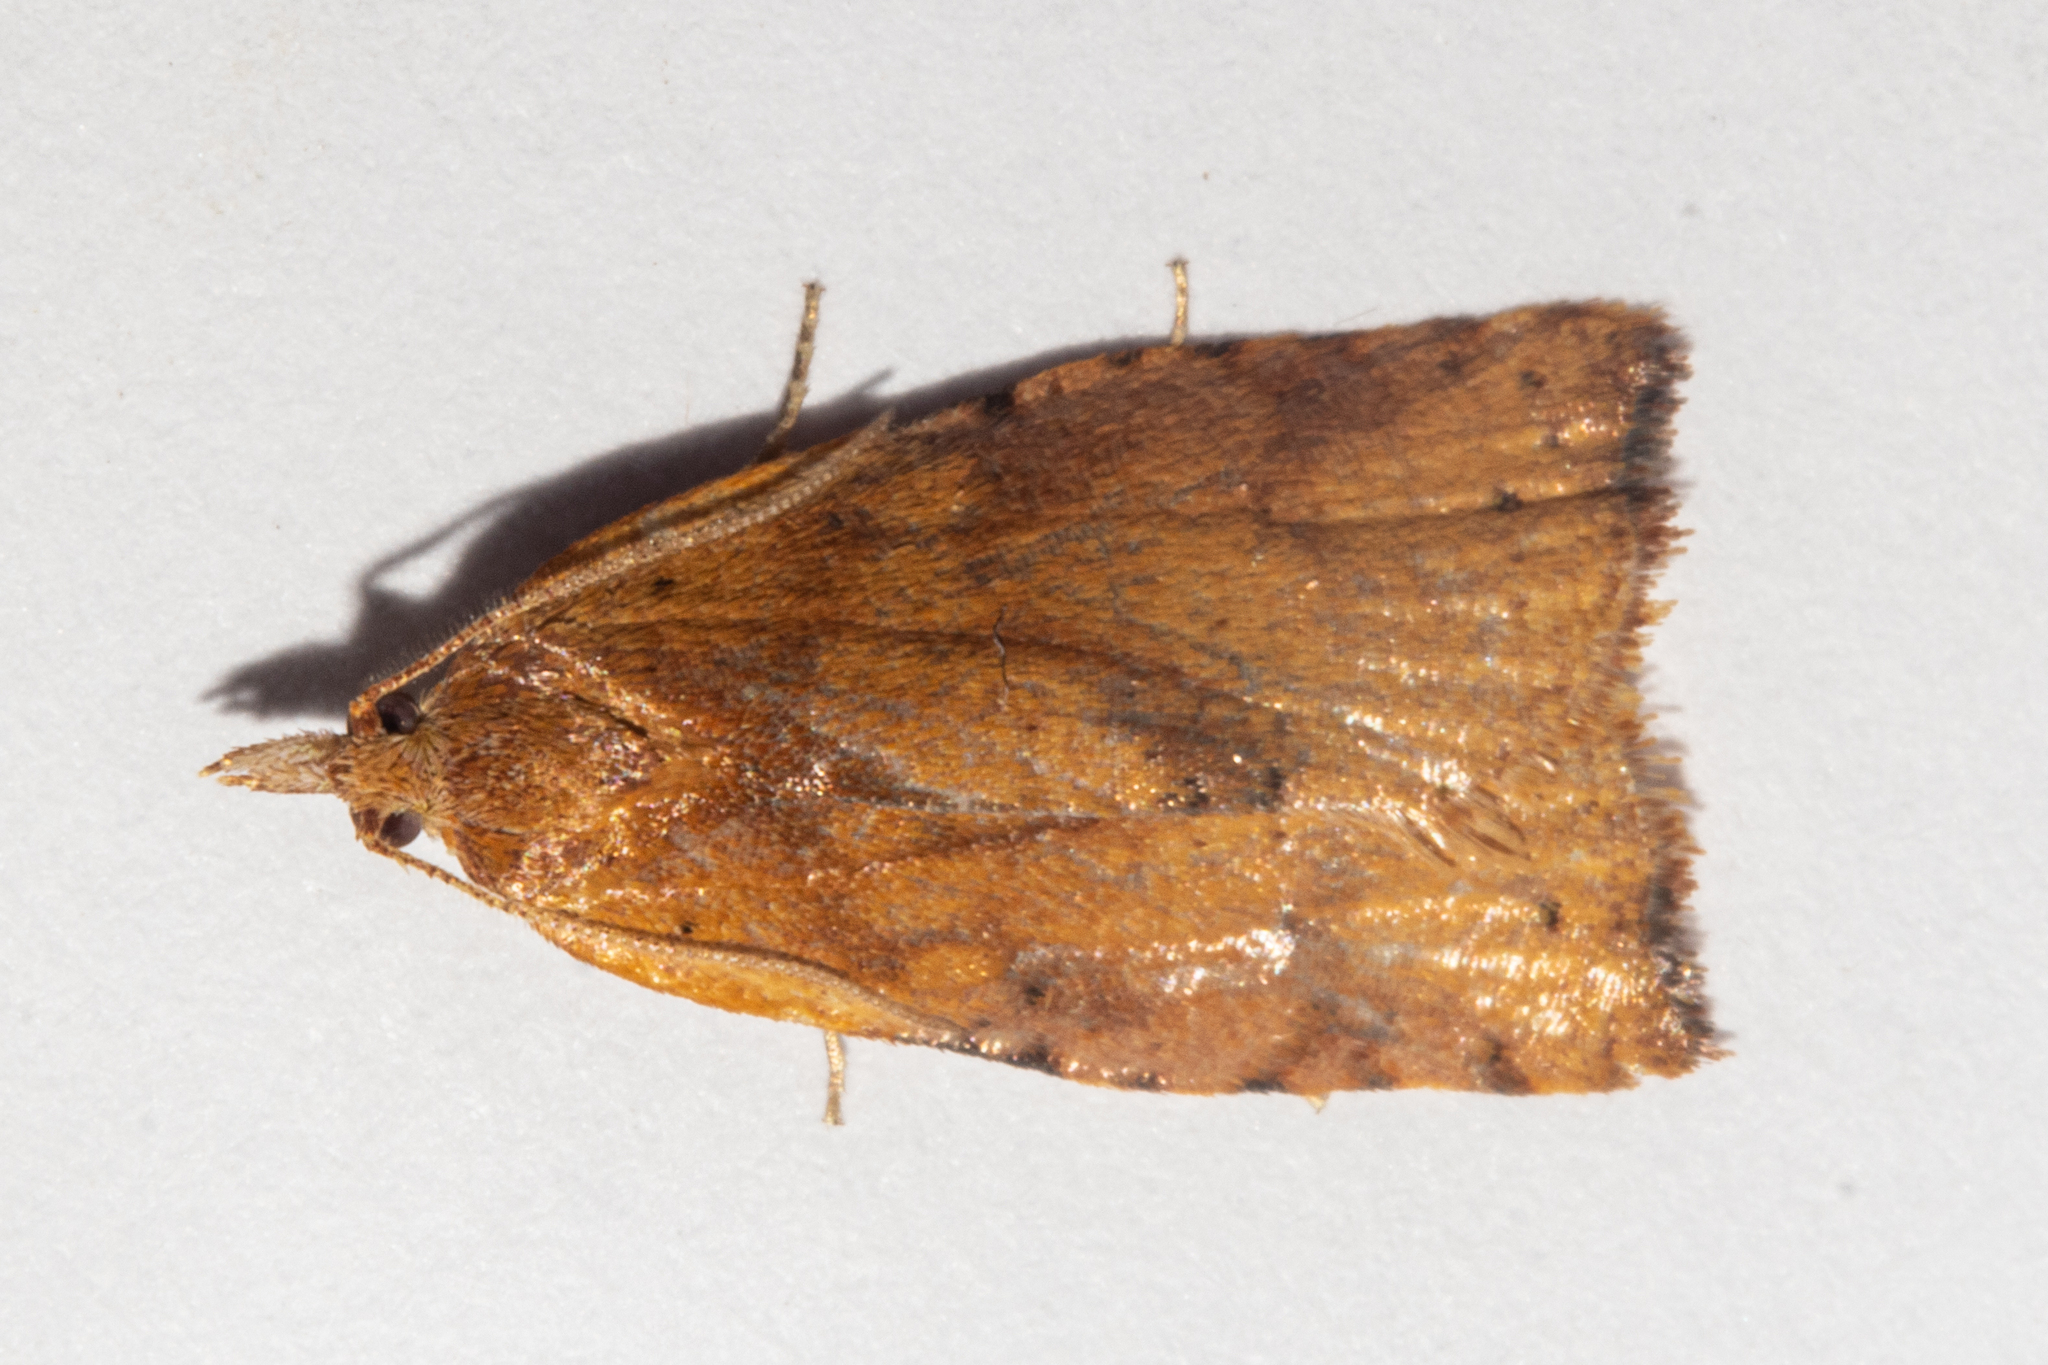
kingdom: Animalia
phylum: Arthropoda
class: Insecta
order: Lepidoptera
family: Tortricidae
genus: Apoctena
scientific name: Apoctena flavescens
